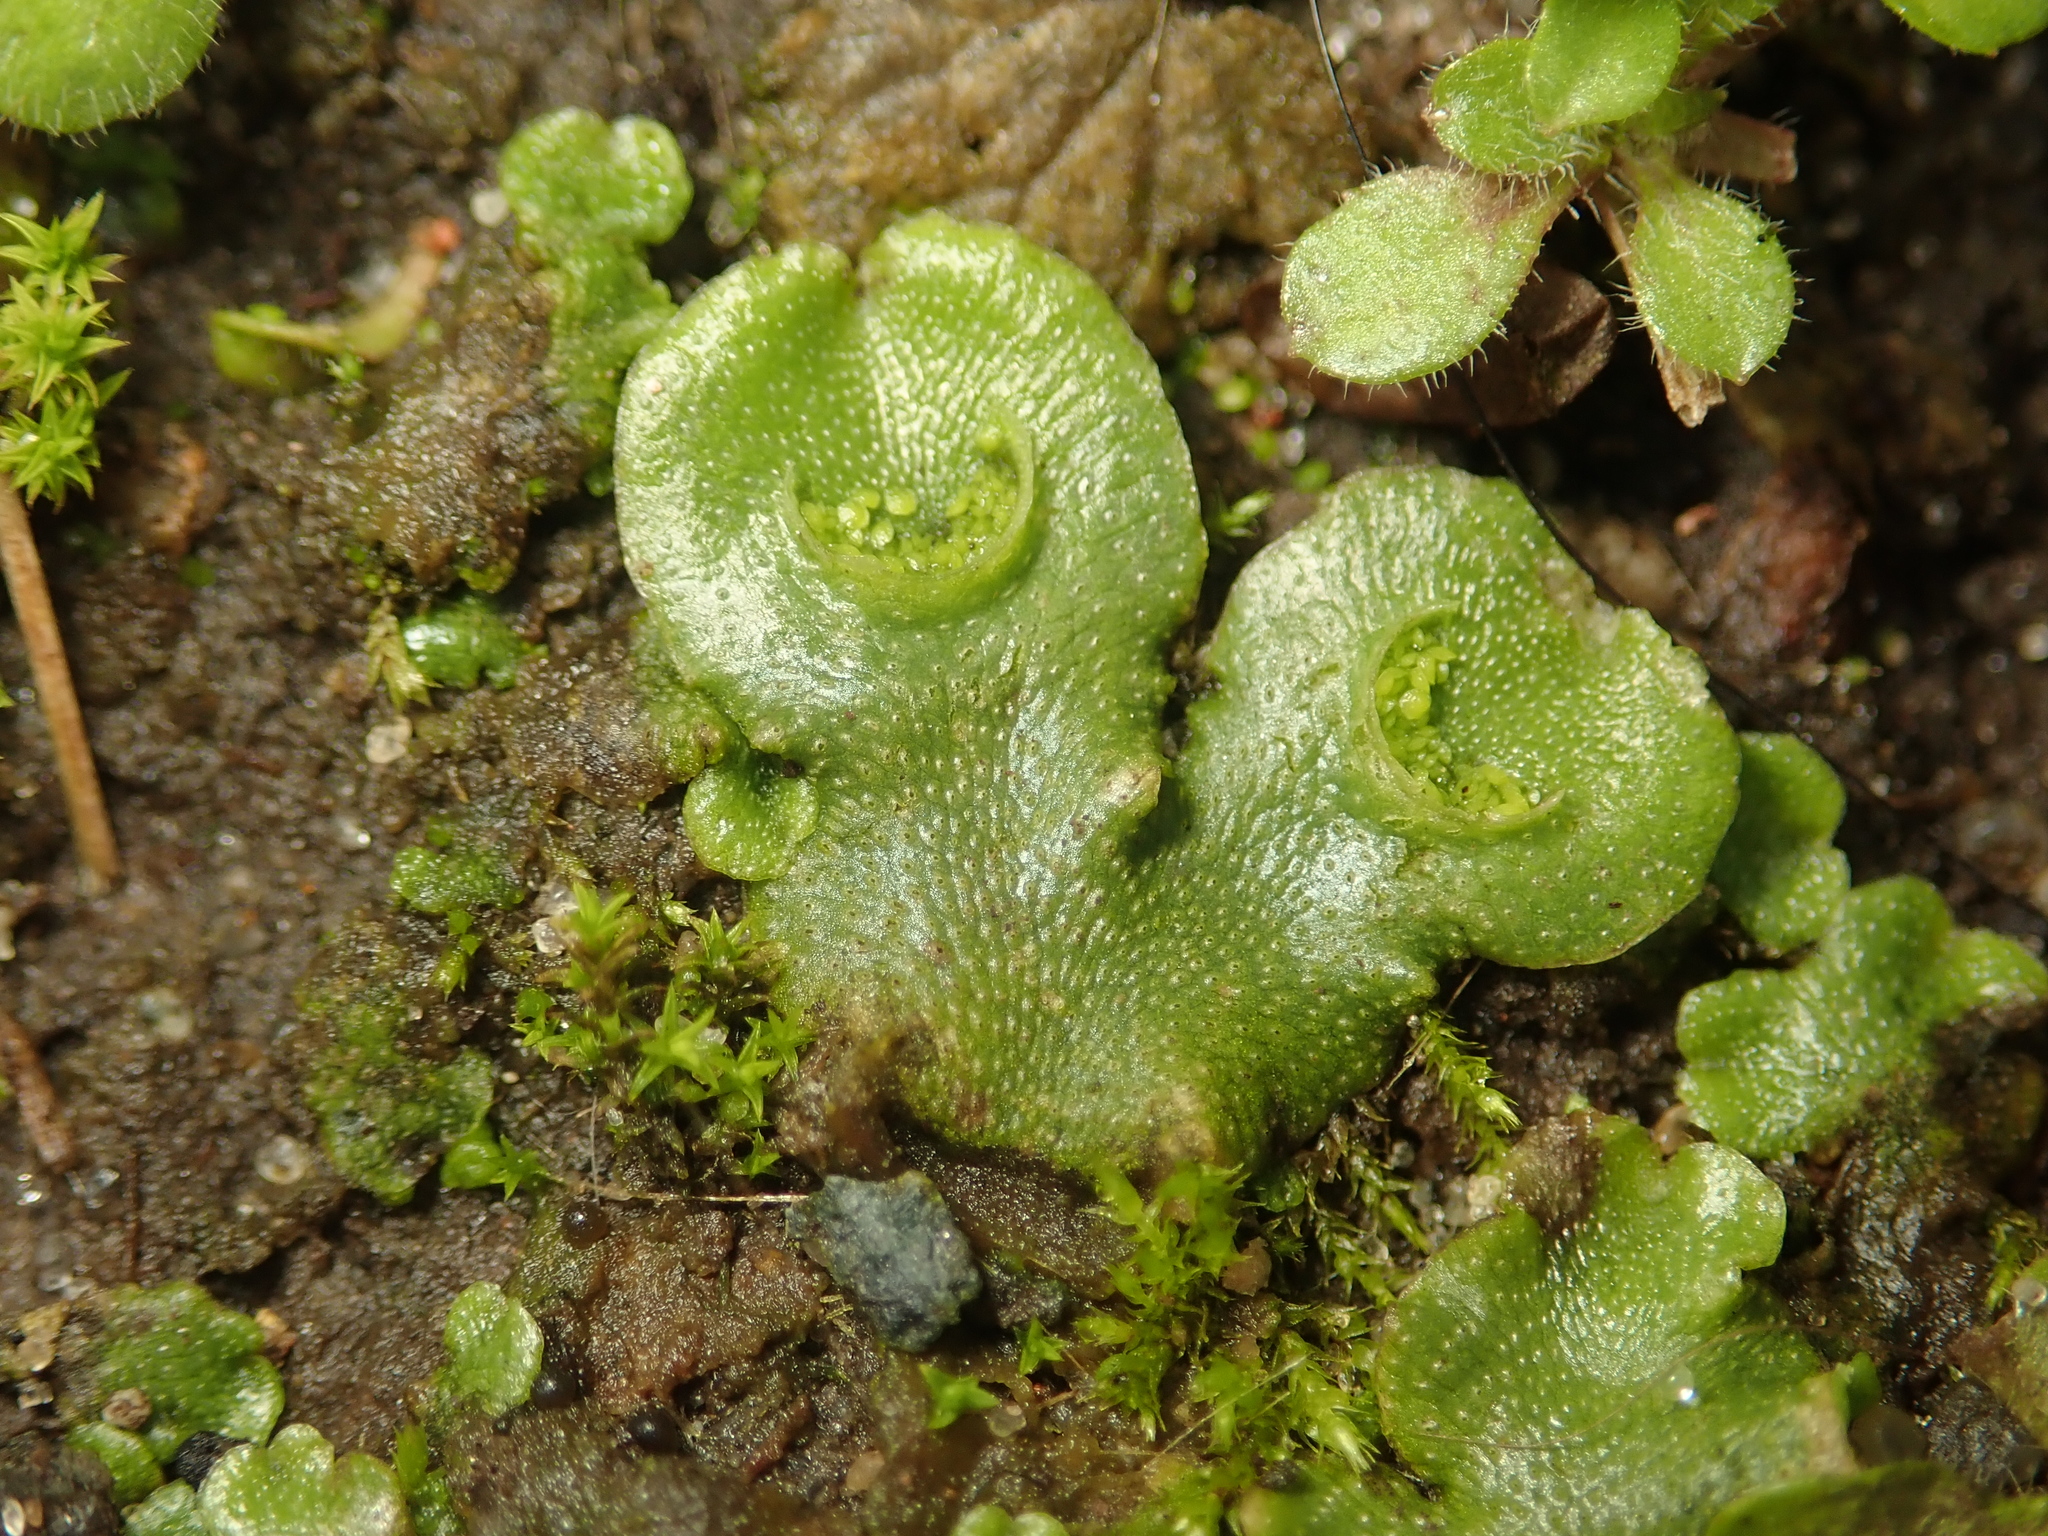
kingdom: Plantae
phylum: Marchantiophyta
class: Marchantiopsida
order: Lunulariales
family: Lunulariaceae
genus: Lunularia
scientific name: Lunularia cruciata
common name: Crescent-cup liverwort
